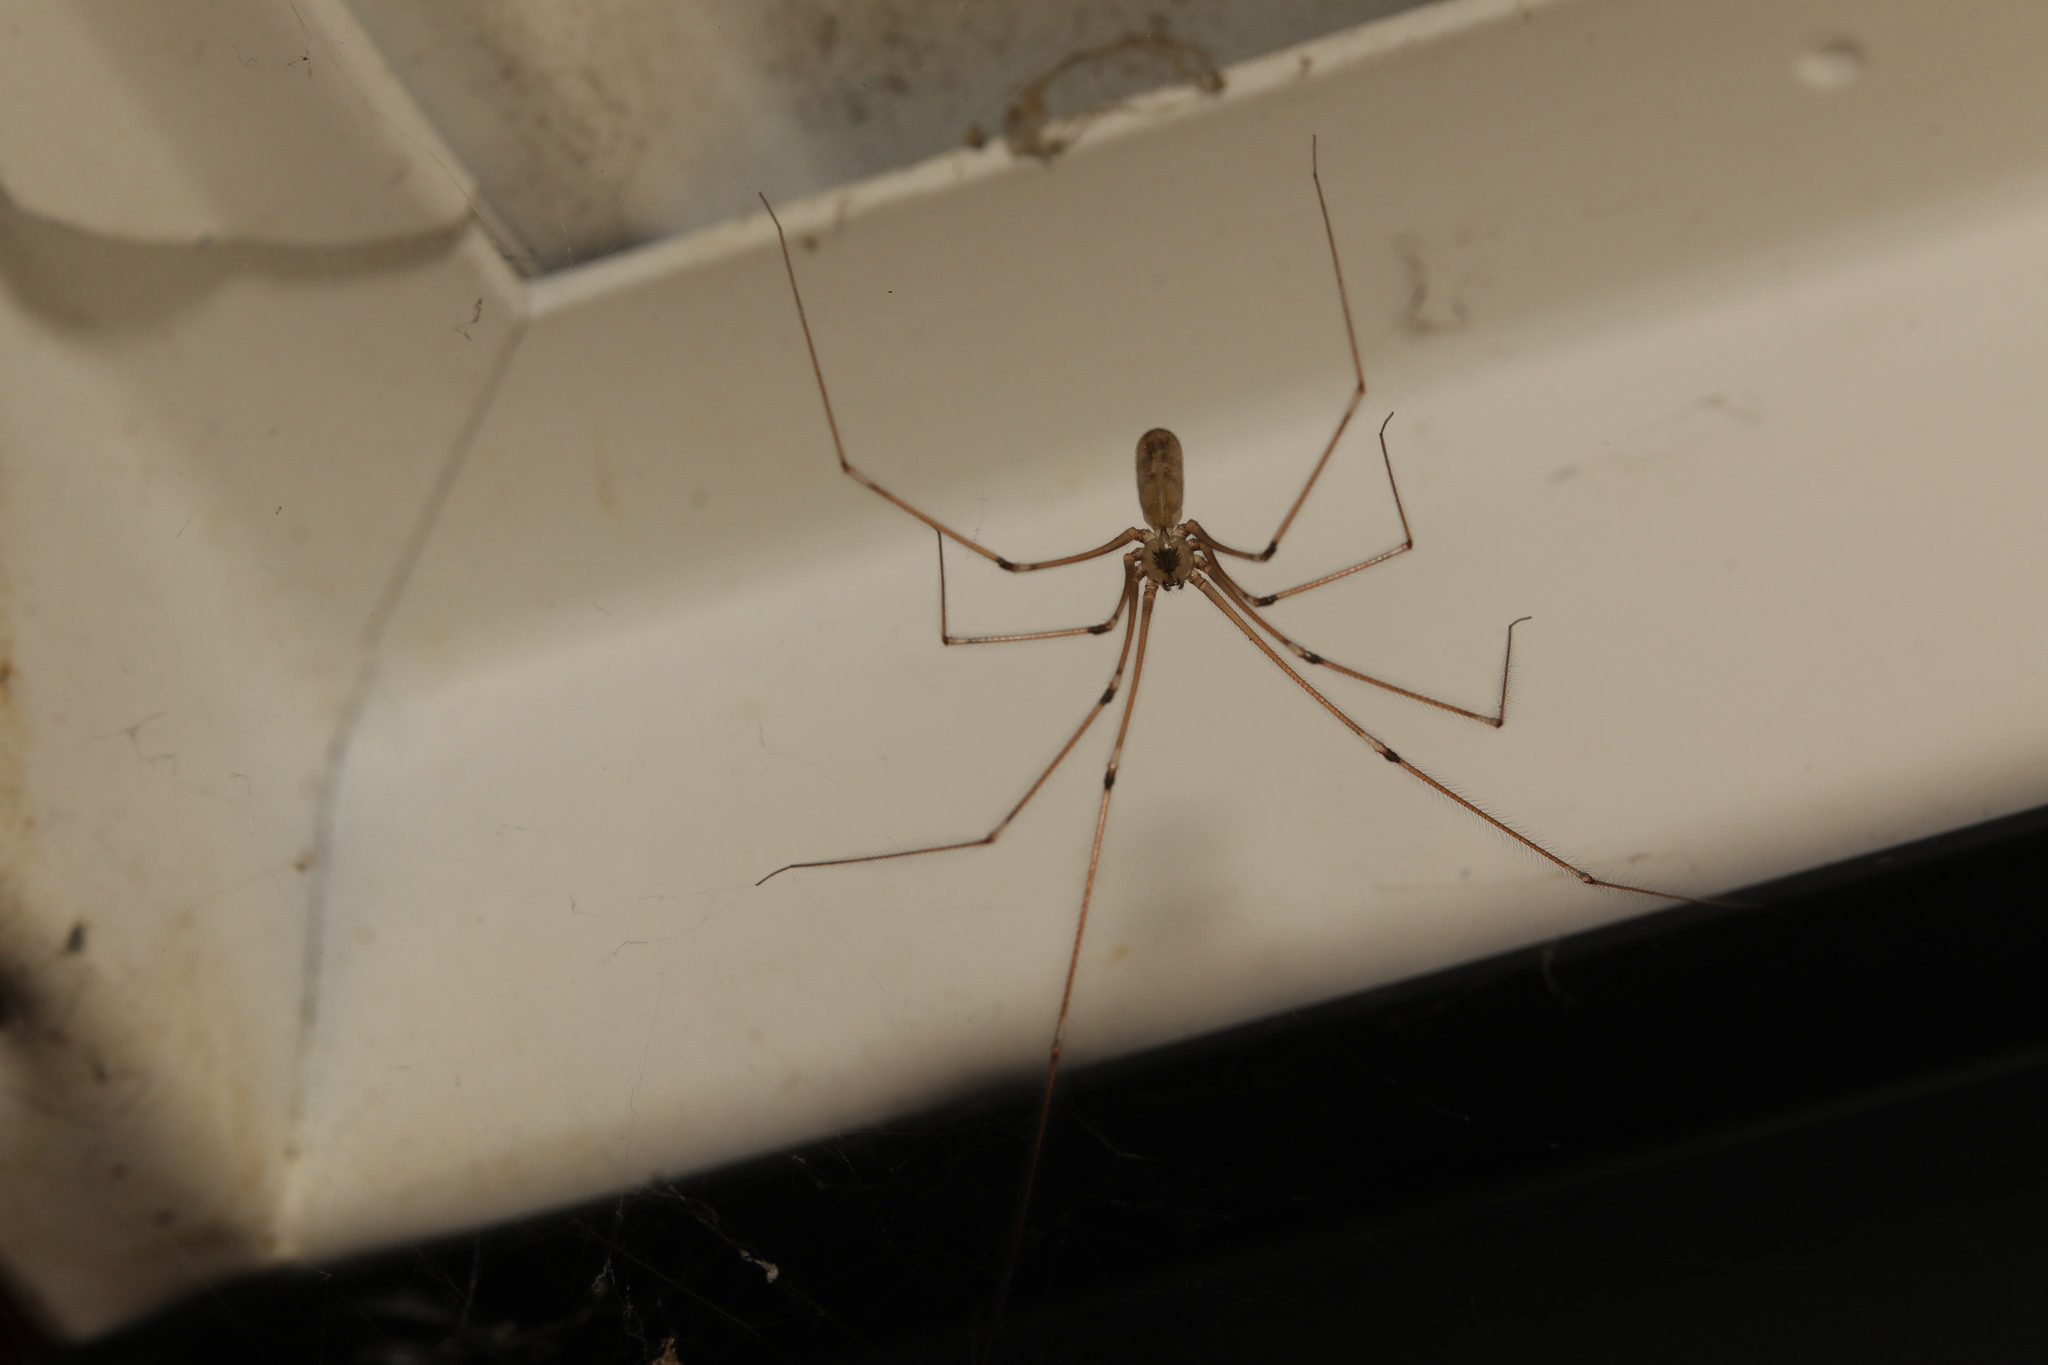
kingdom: Animalia
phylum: Arthropoda
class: Arachnida
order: Araneae
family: Pholcidae
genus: Pholcus
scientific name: Pholcus phalangioides
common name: Longbodied cellar spider
